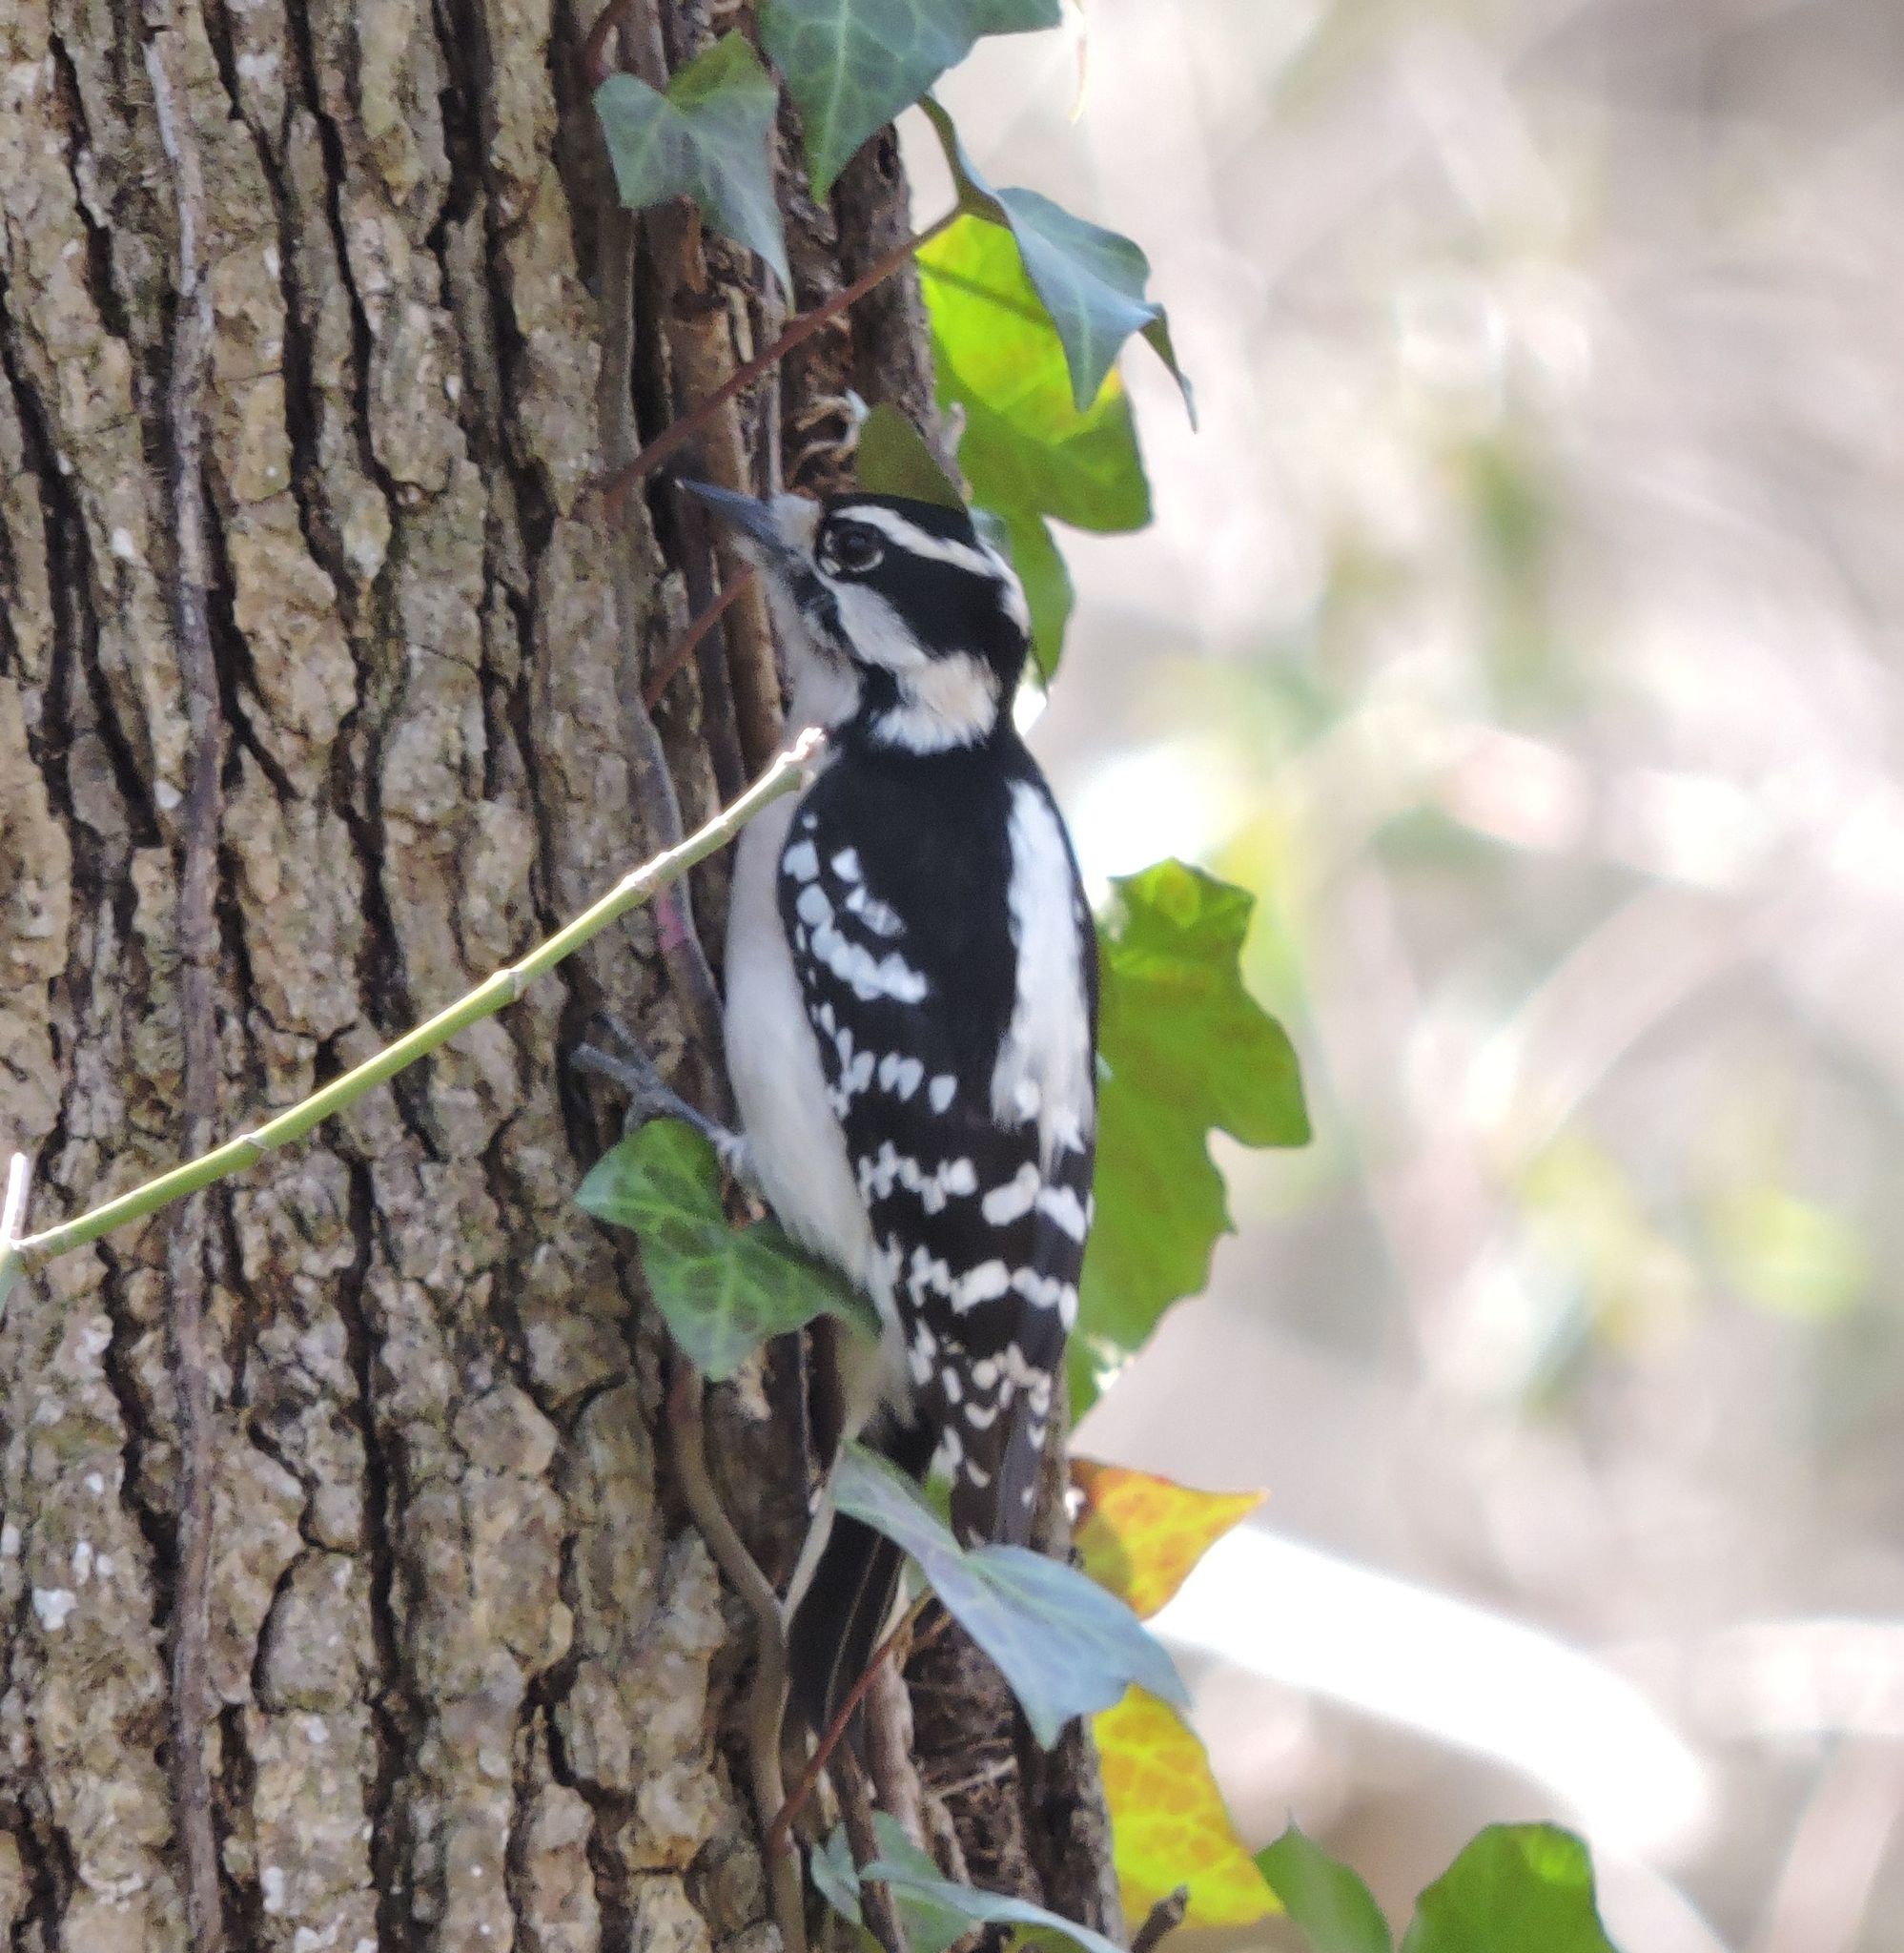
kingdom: Animalia
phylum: Chordata
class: Aves
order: Piciformes
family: Picidae
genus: Dryobates
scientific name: Dryobates pubescens
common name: Downy woodpecker
